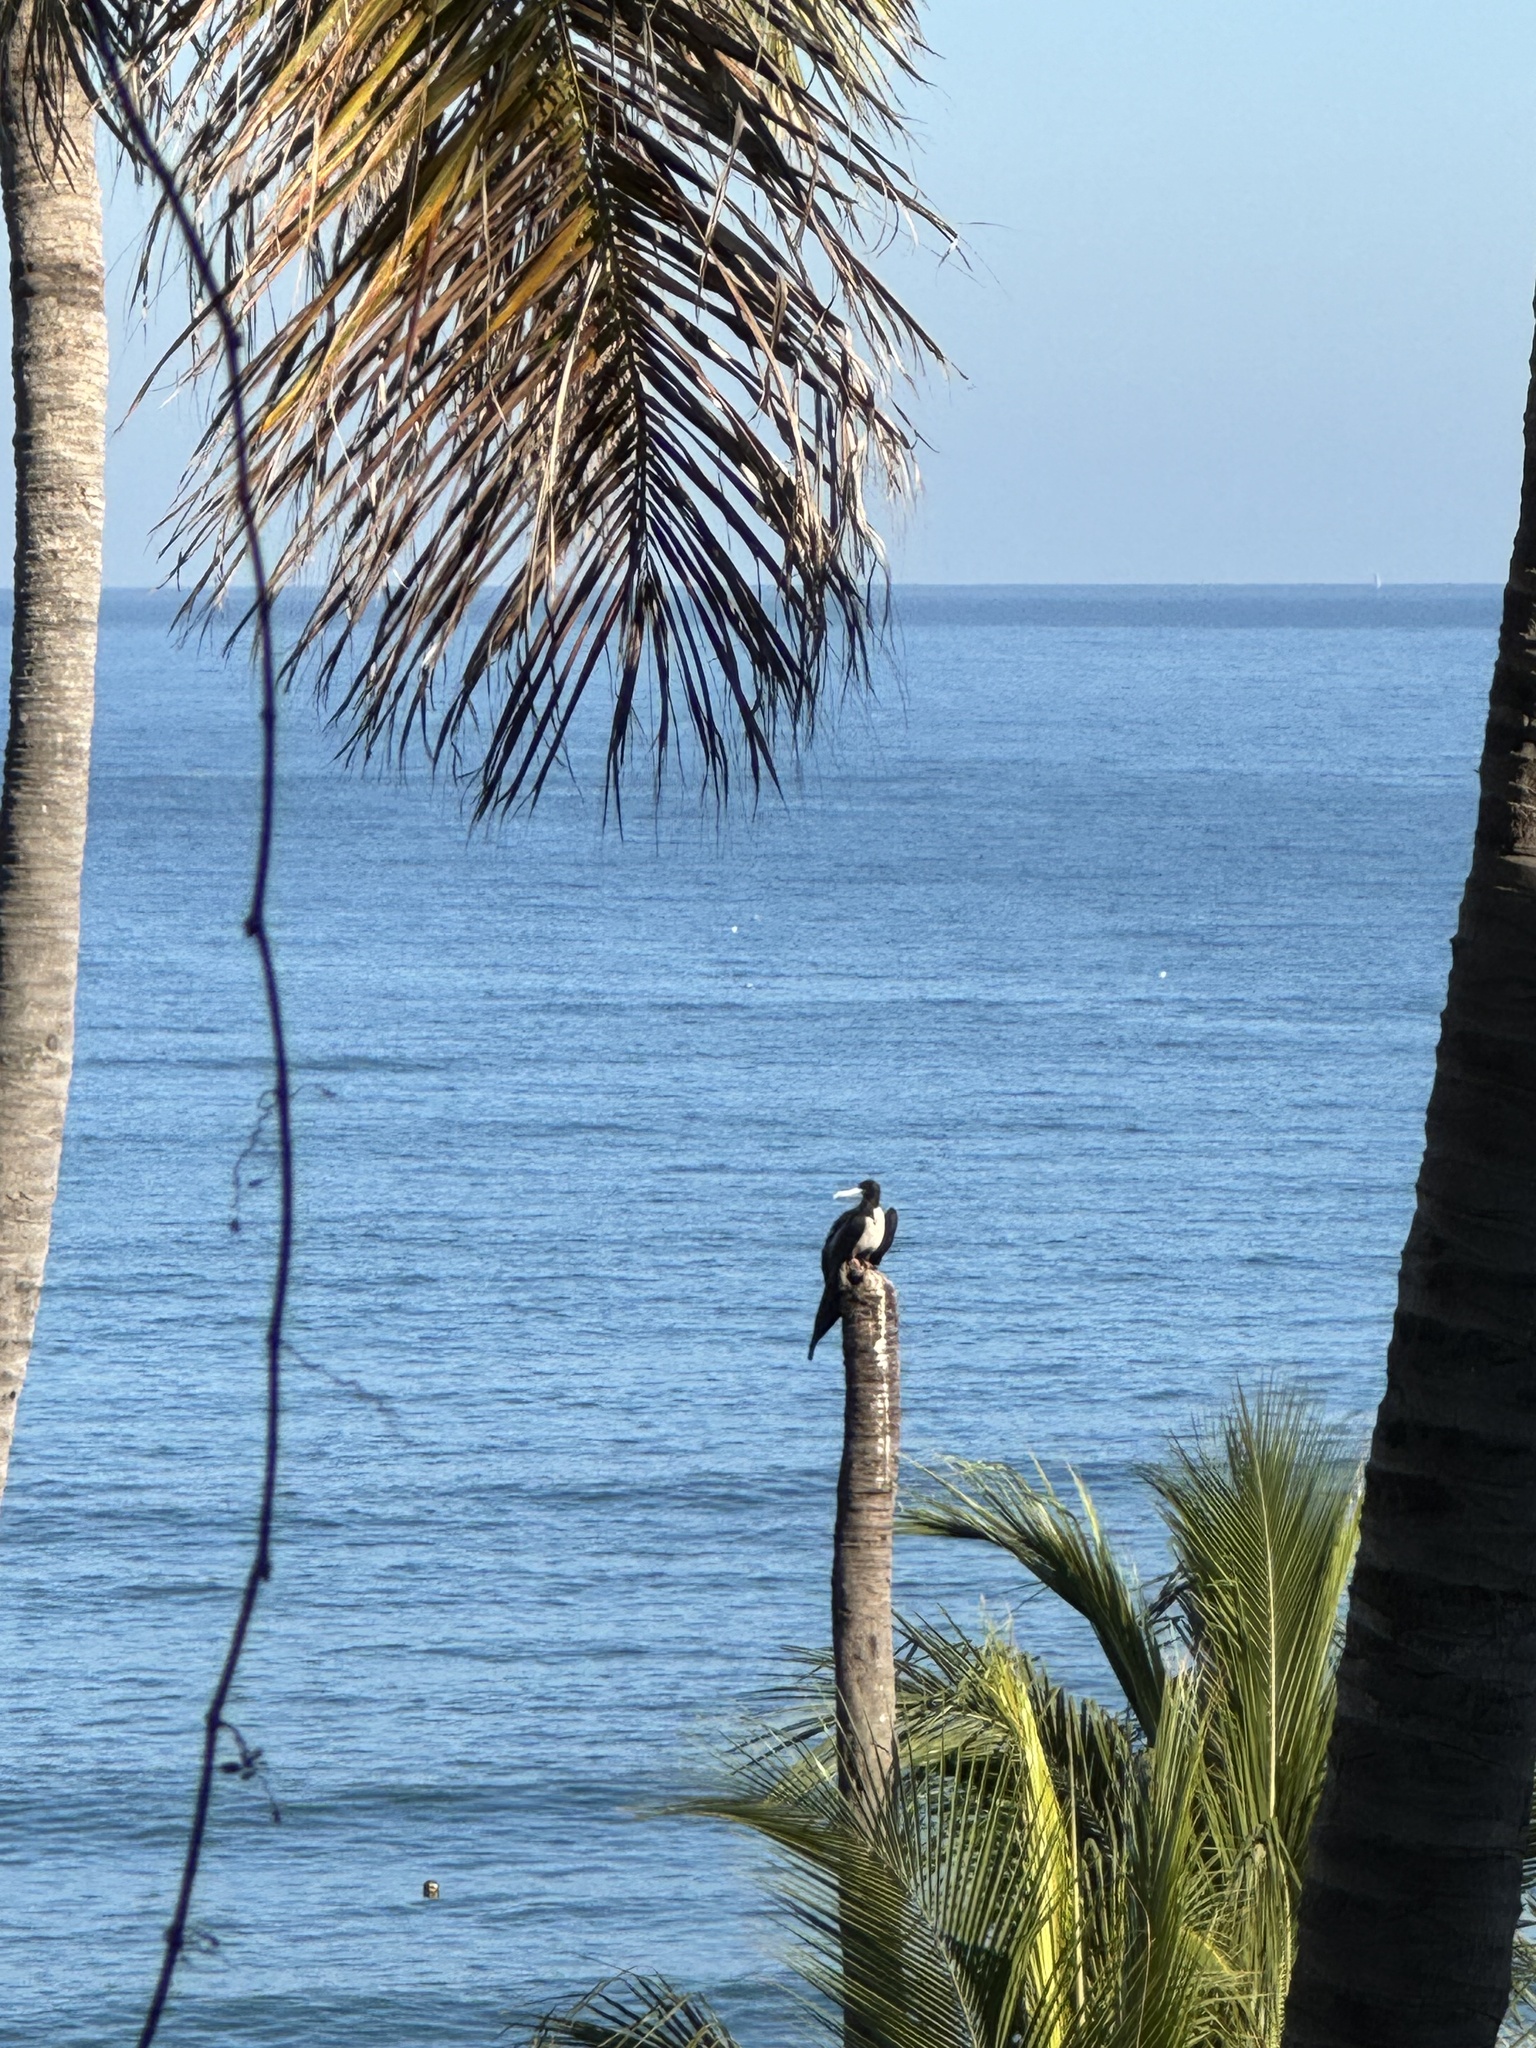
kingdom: Animalia
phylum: Chordata
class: Aves
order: Suliformes
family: Fregatidae
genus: Fregata
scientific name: Fregata magnificens
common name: Magnificent frigatebird
